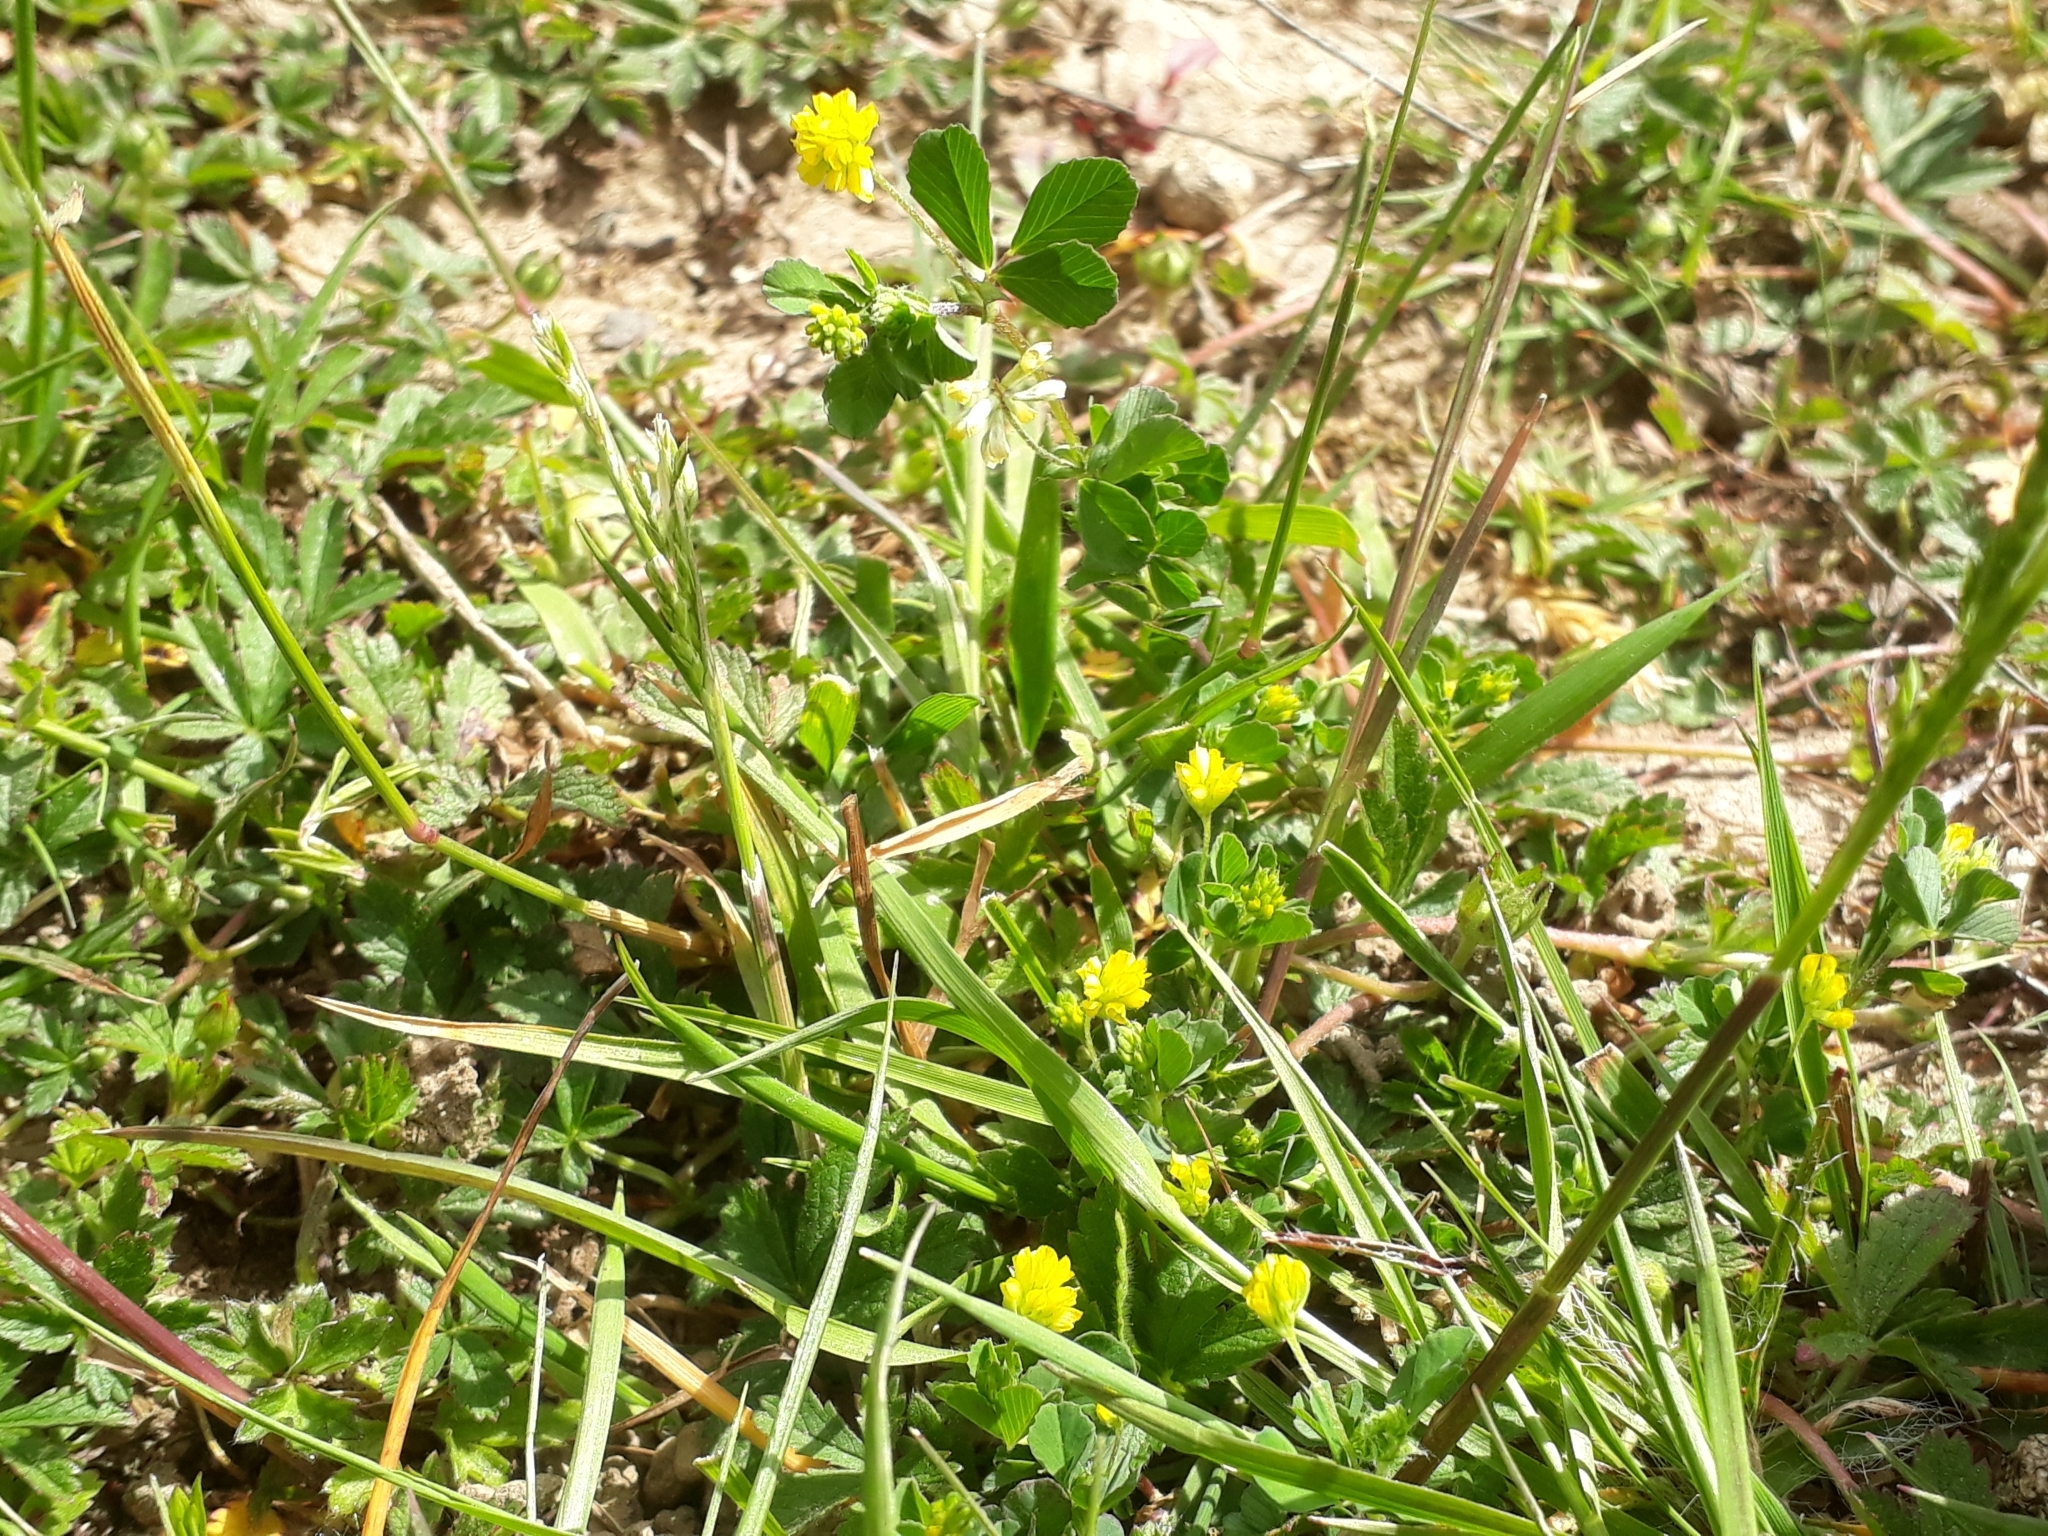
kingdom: Plantae
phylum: Tracheophyta
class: Magnoliopsida
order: Fabales
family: Fabaceae
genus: Trifolium
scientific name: Trifolium dubium
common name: Suckling clover
